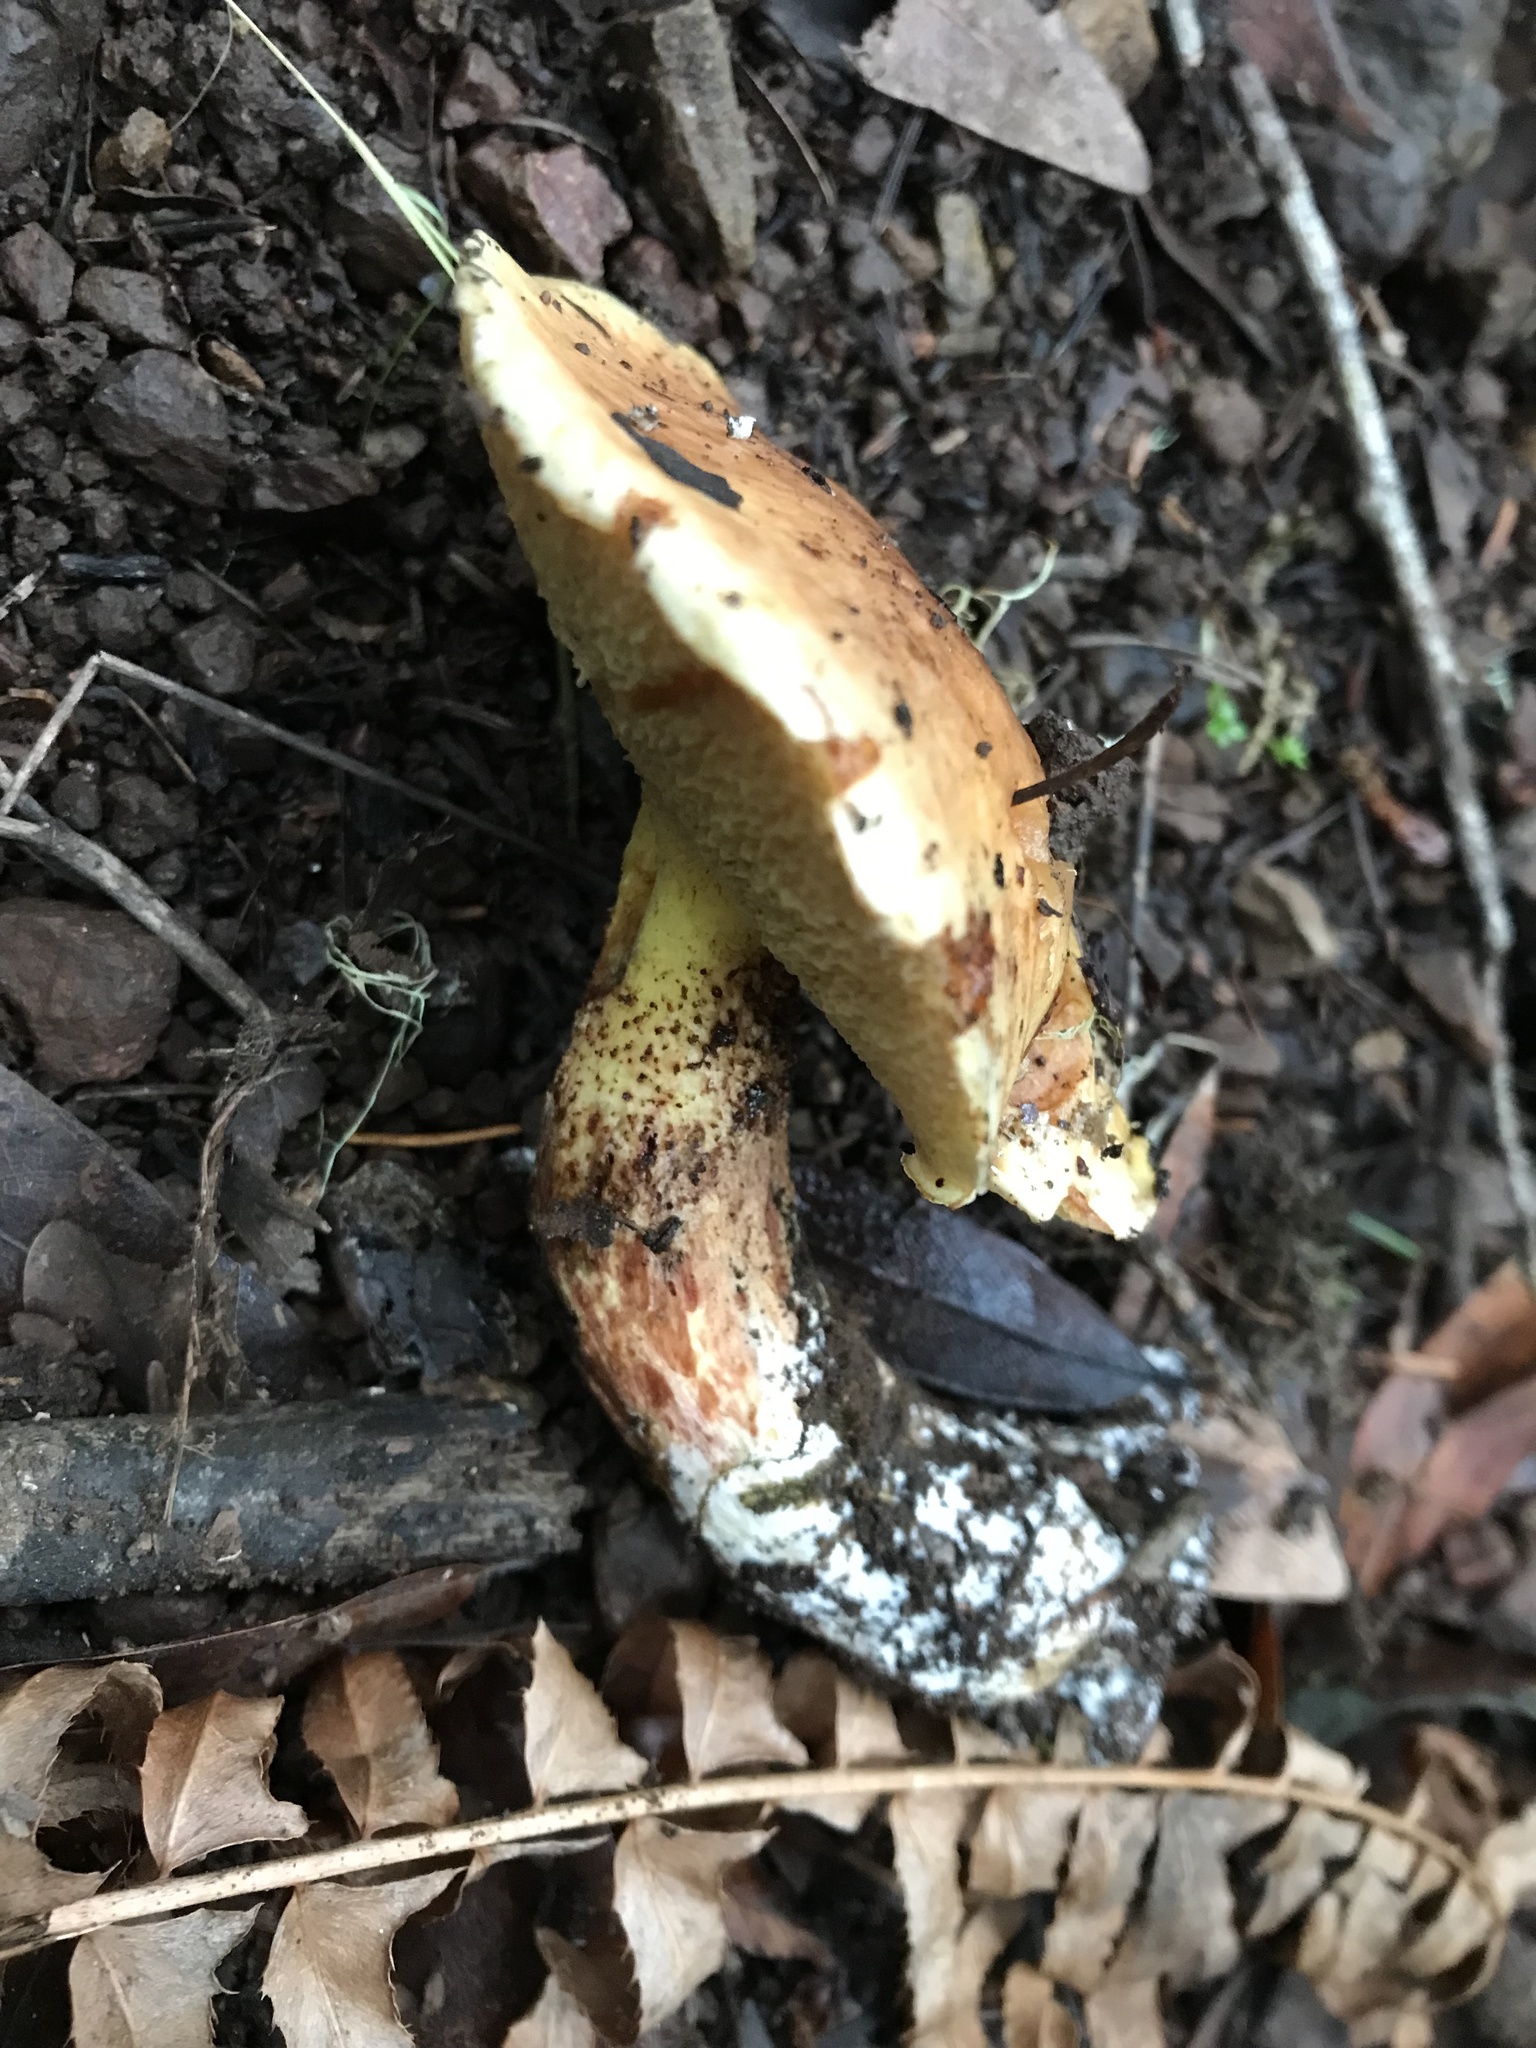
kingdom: Fungi
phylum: Basidiomycota
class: Agaricomycetes
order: Boletales
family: Suillaceae
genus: Suillus
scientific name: Suillus caerulescens
